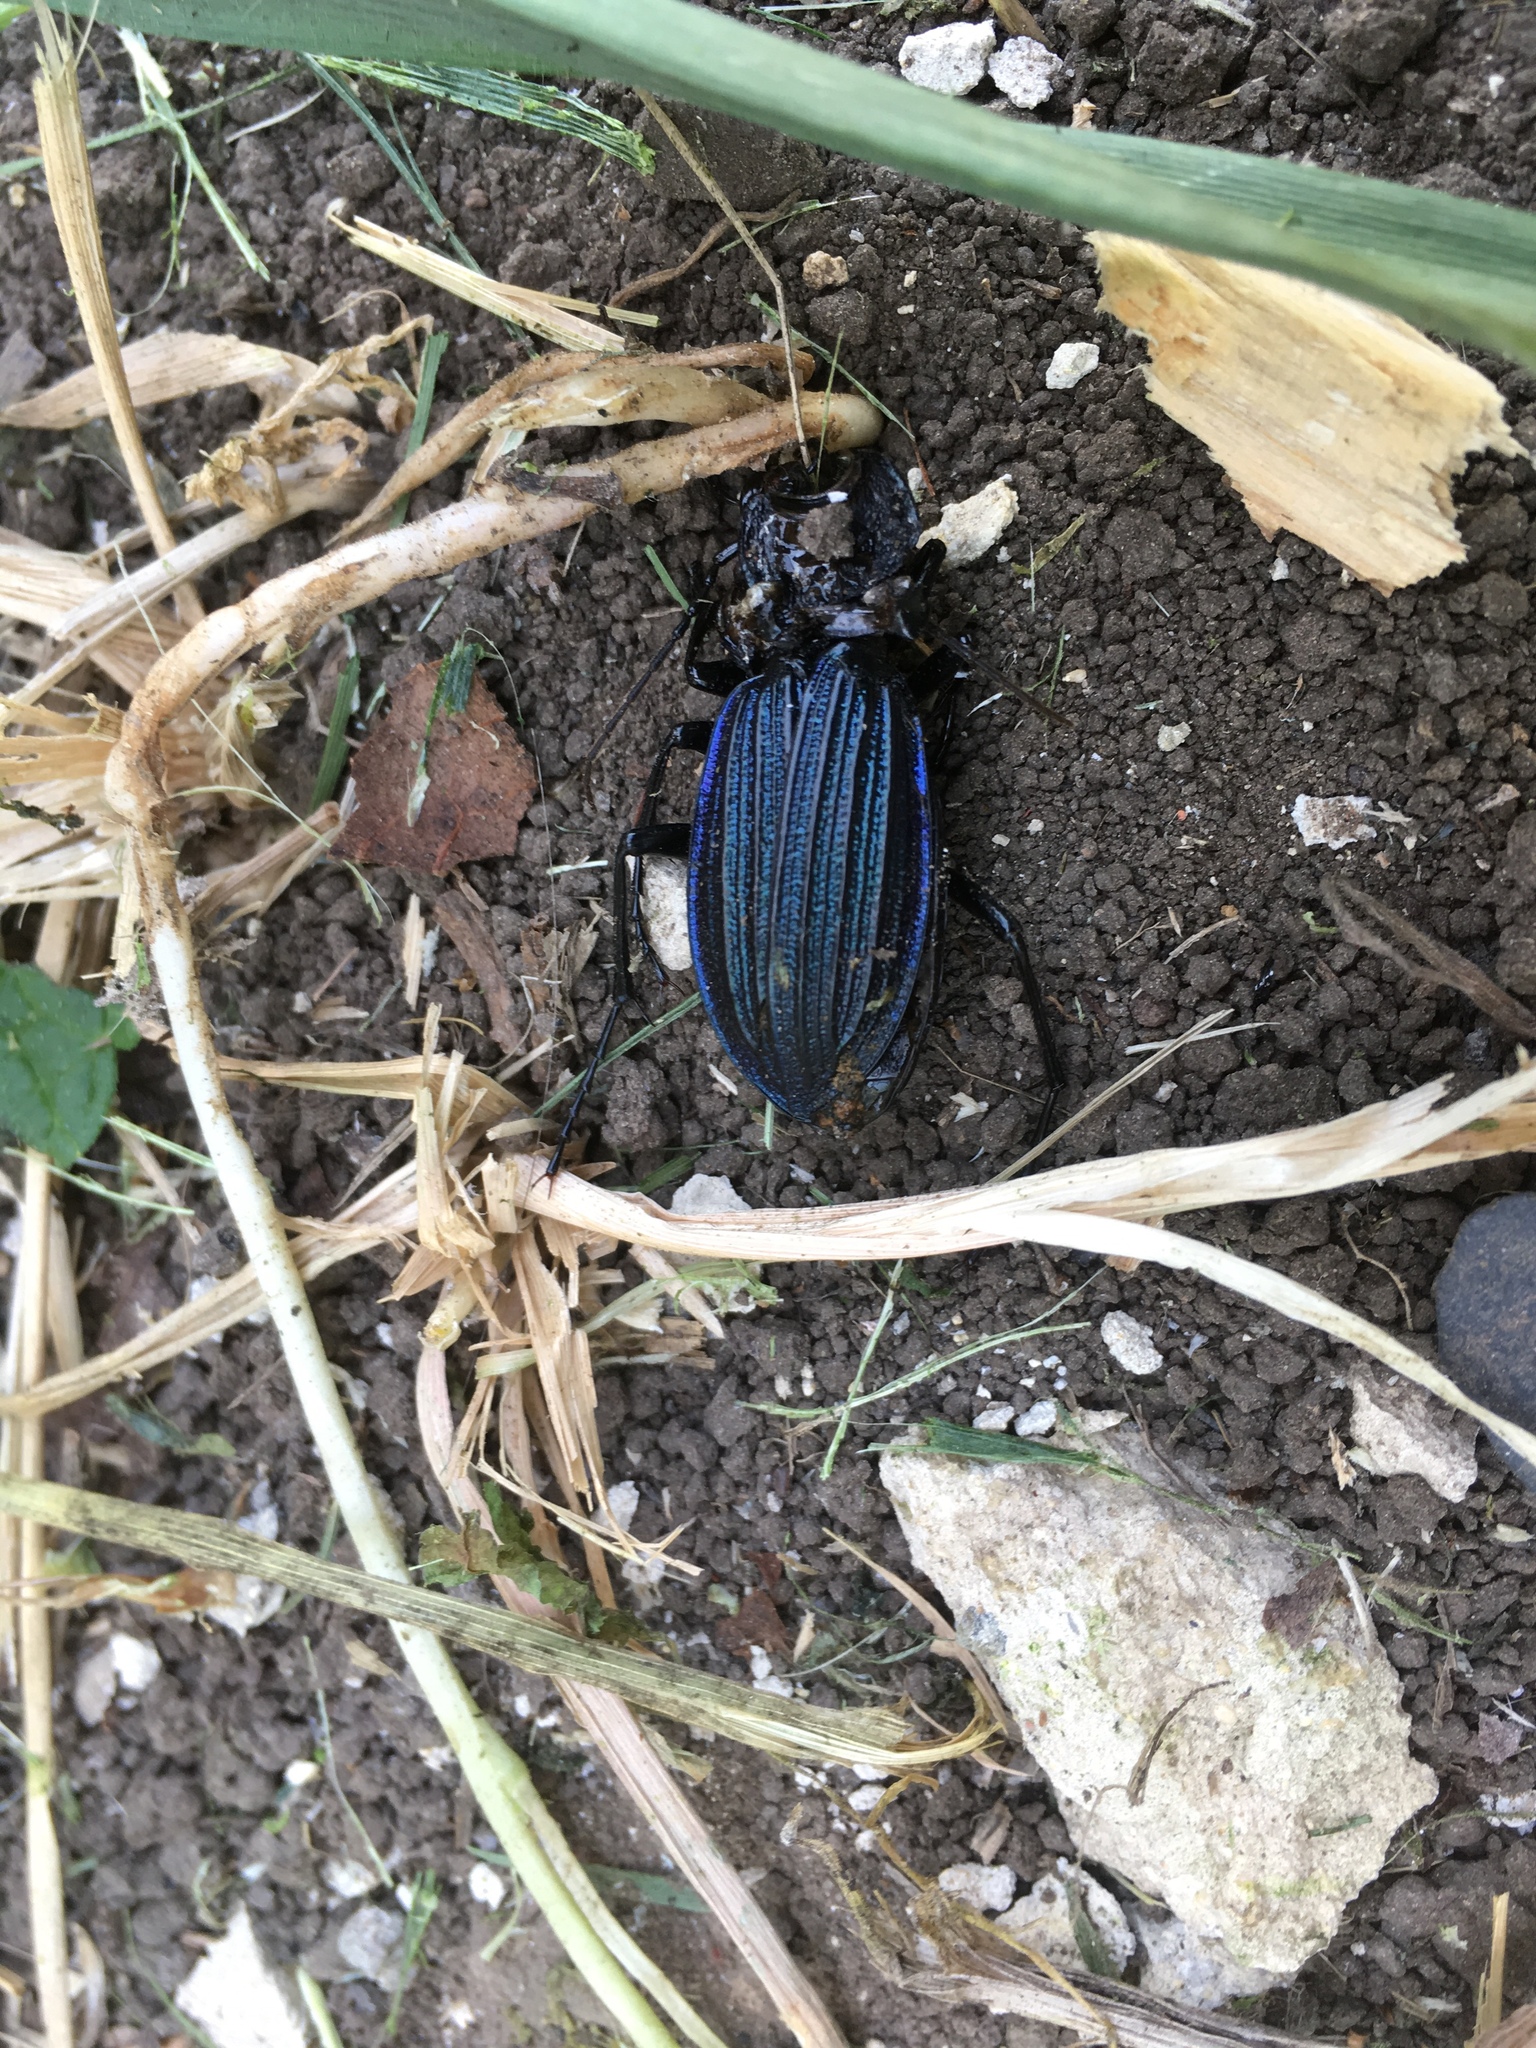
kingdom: Animalia
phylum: Arthropoda
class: Insecta
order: Coleoptera
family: Carabidae
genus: Carabus
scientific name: Carabus exaratus
